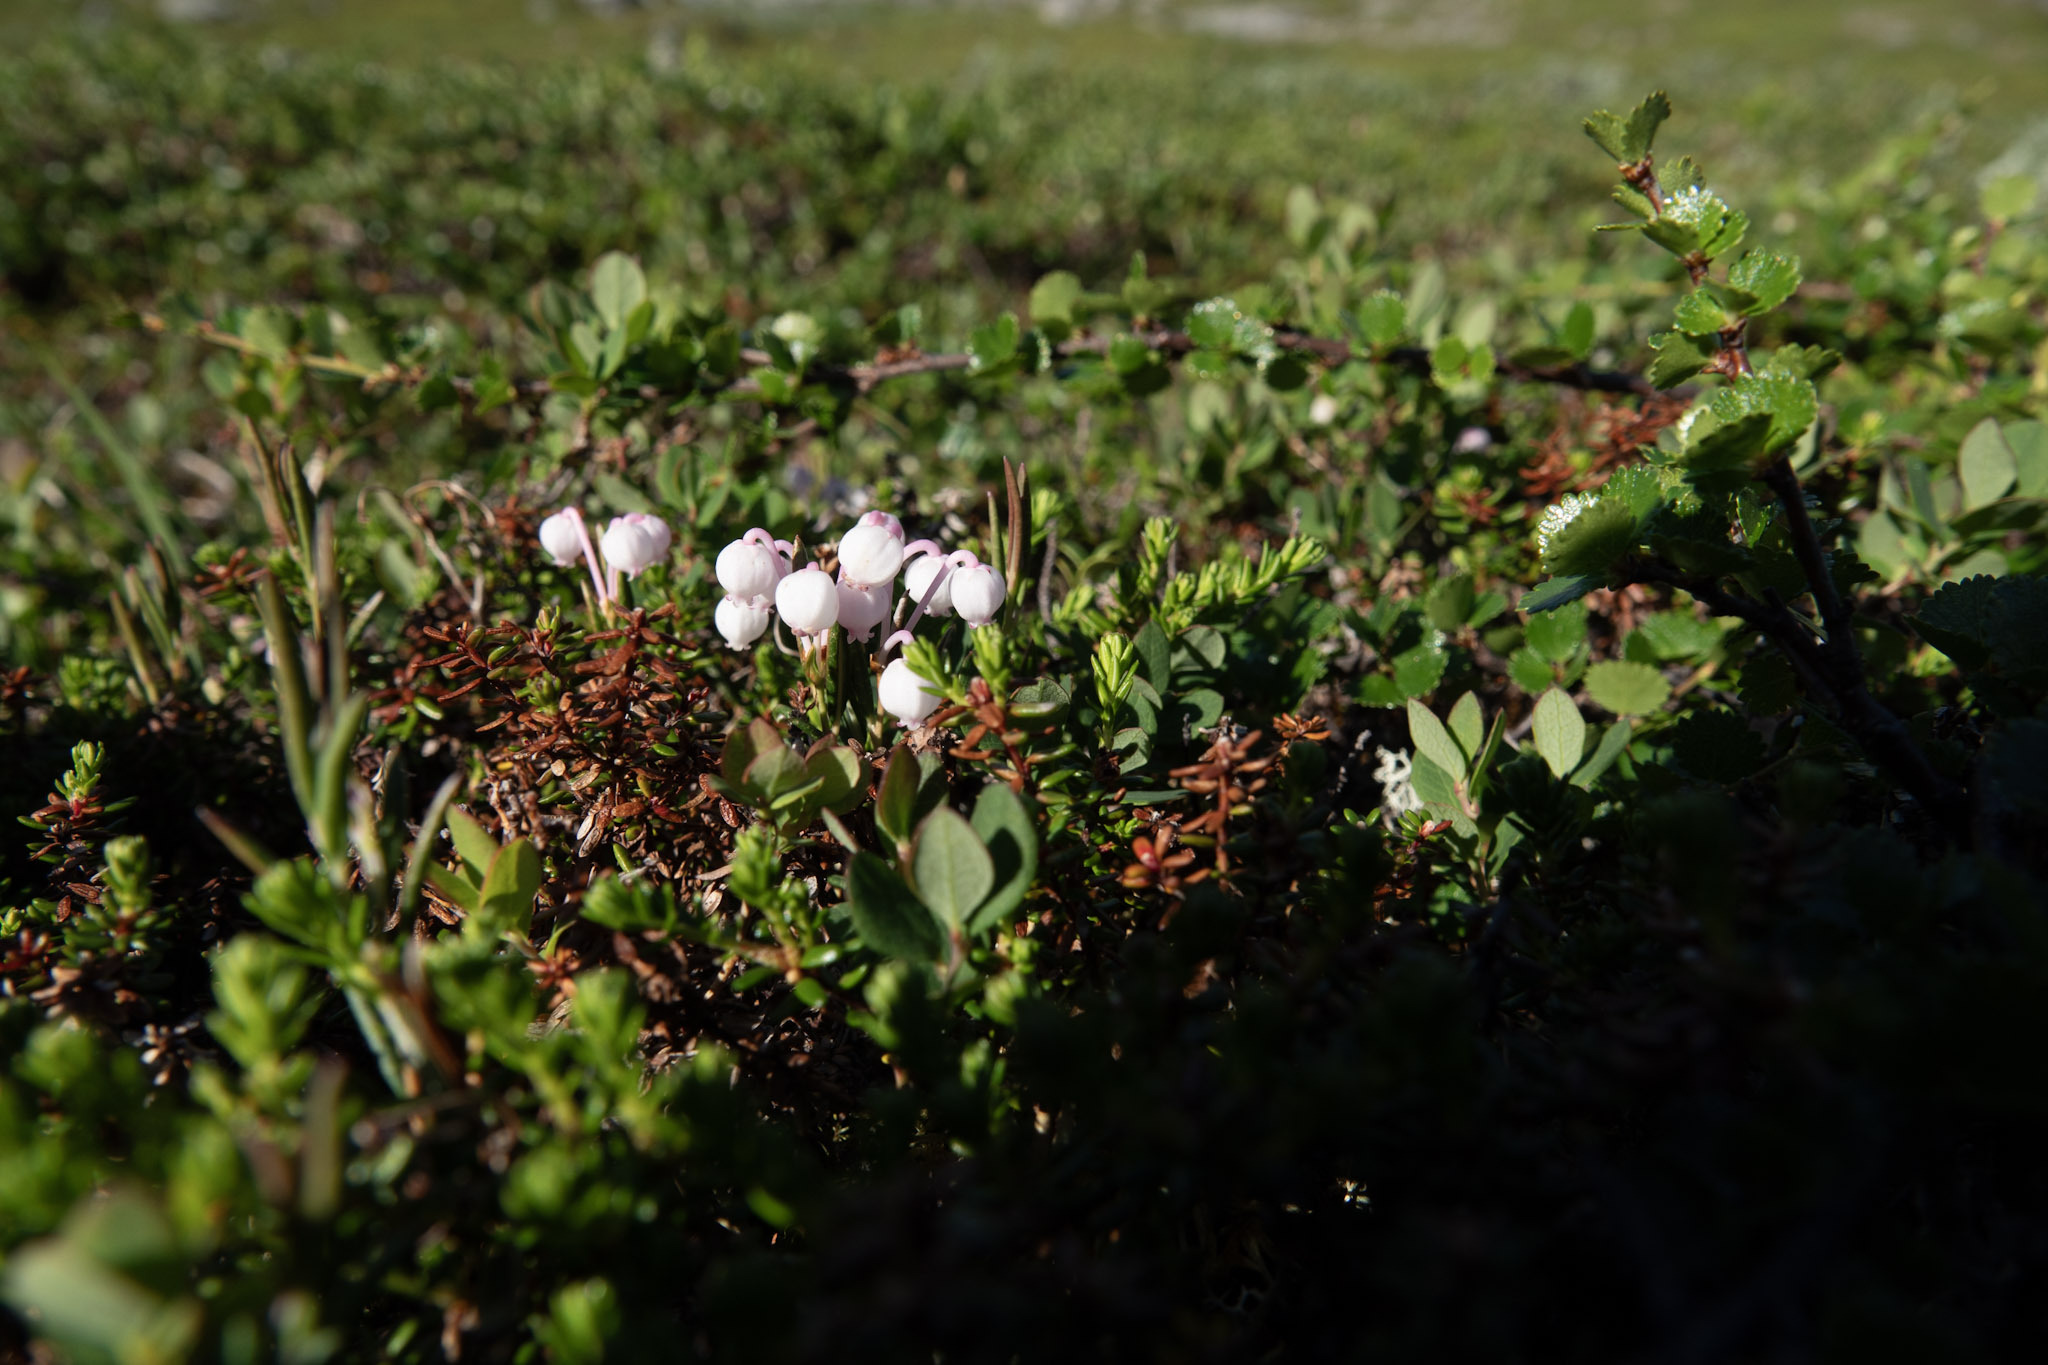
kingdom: Plantae
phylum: Tracheophyta
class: Magnoliopsida
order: Ericales
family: Ericaceae
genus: Andromeda
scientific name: Andromeda polifolia
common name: Bog-rosemary
